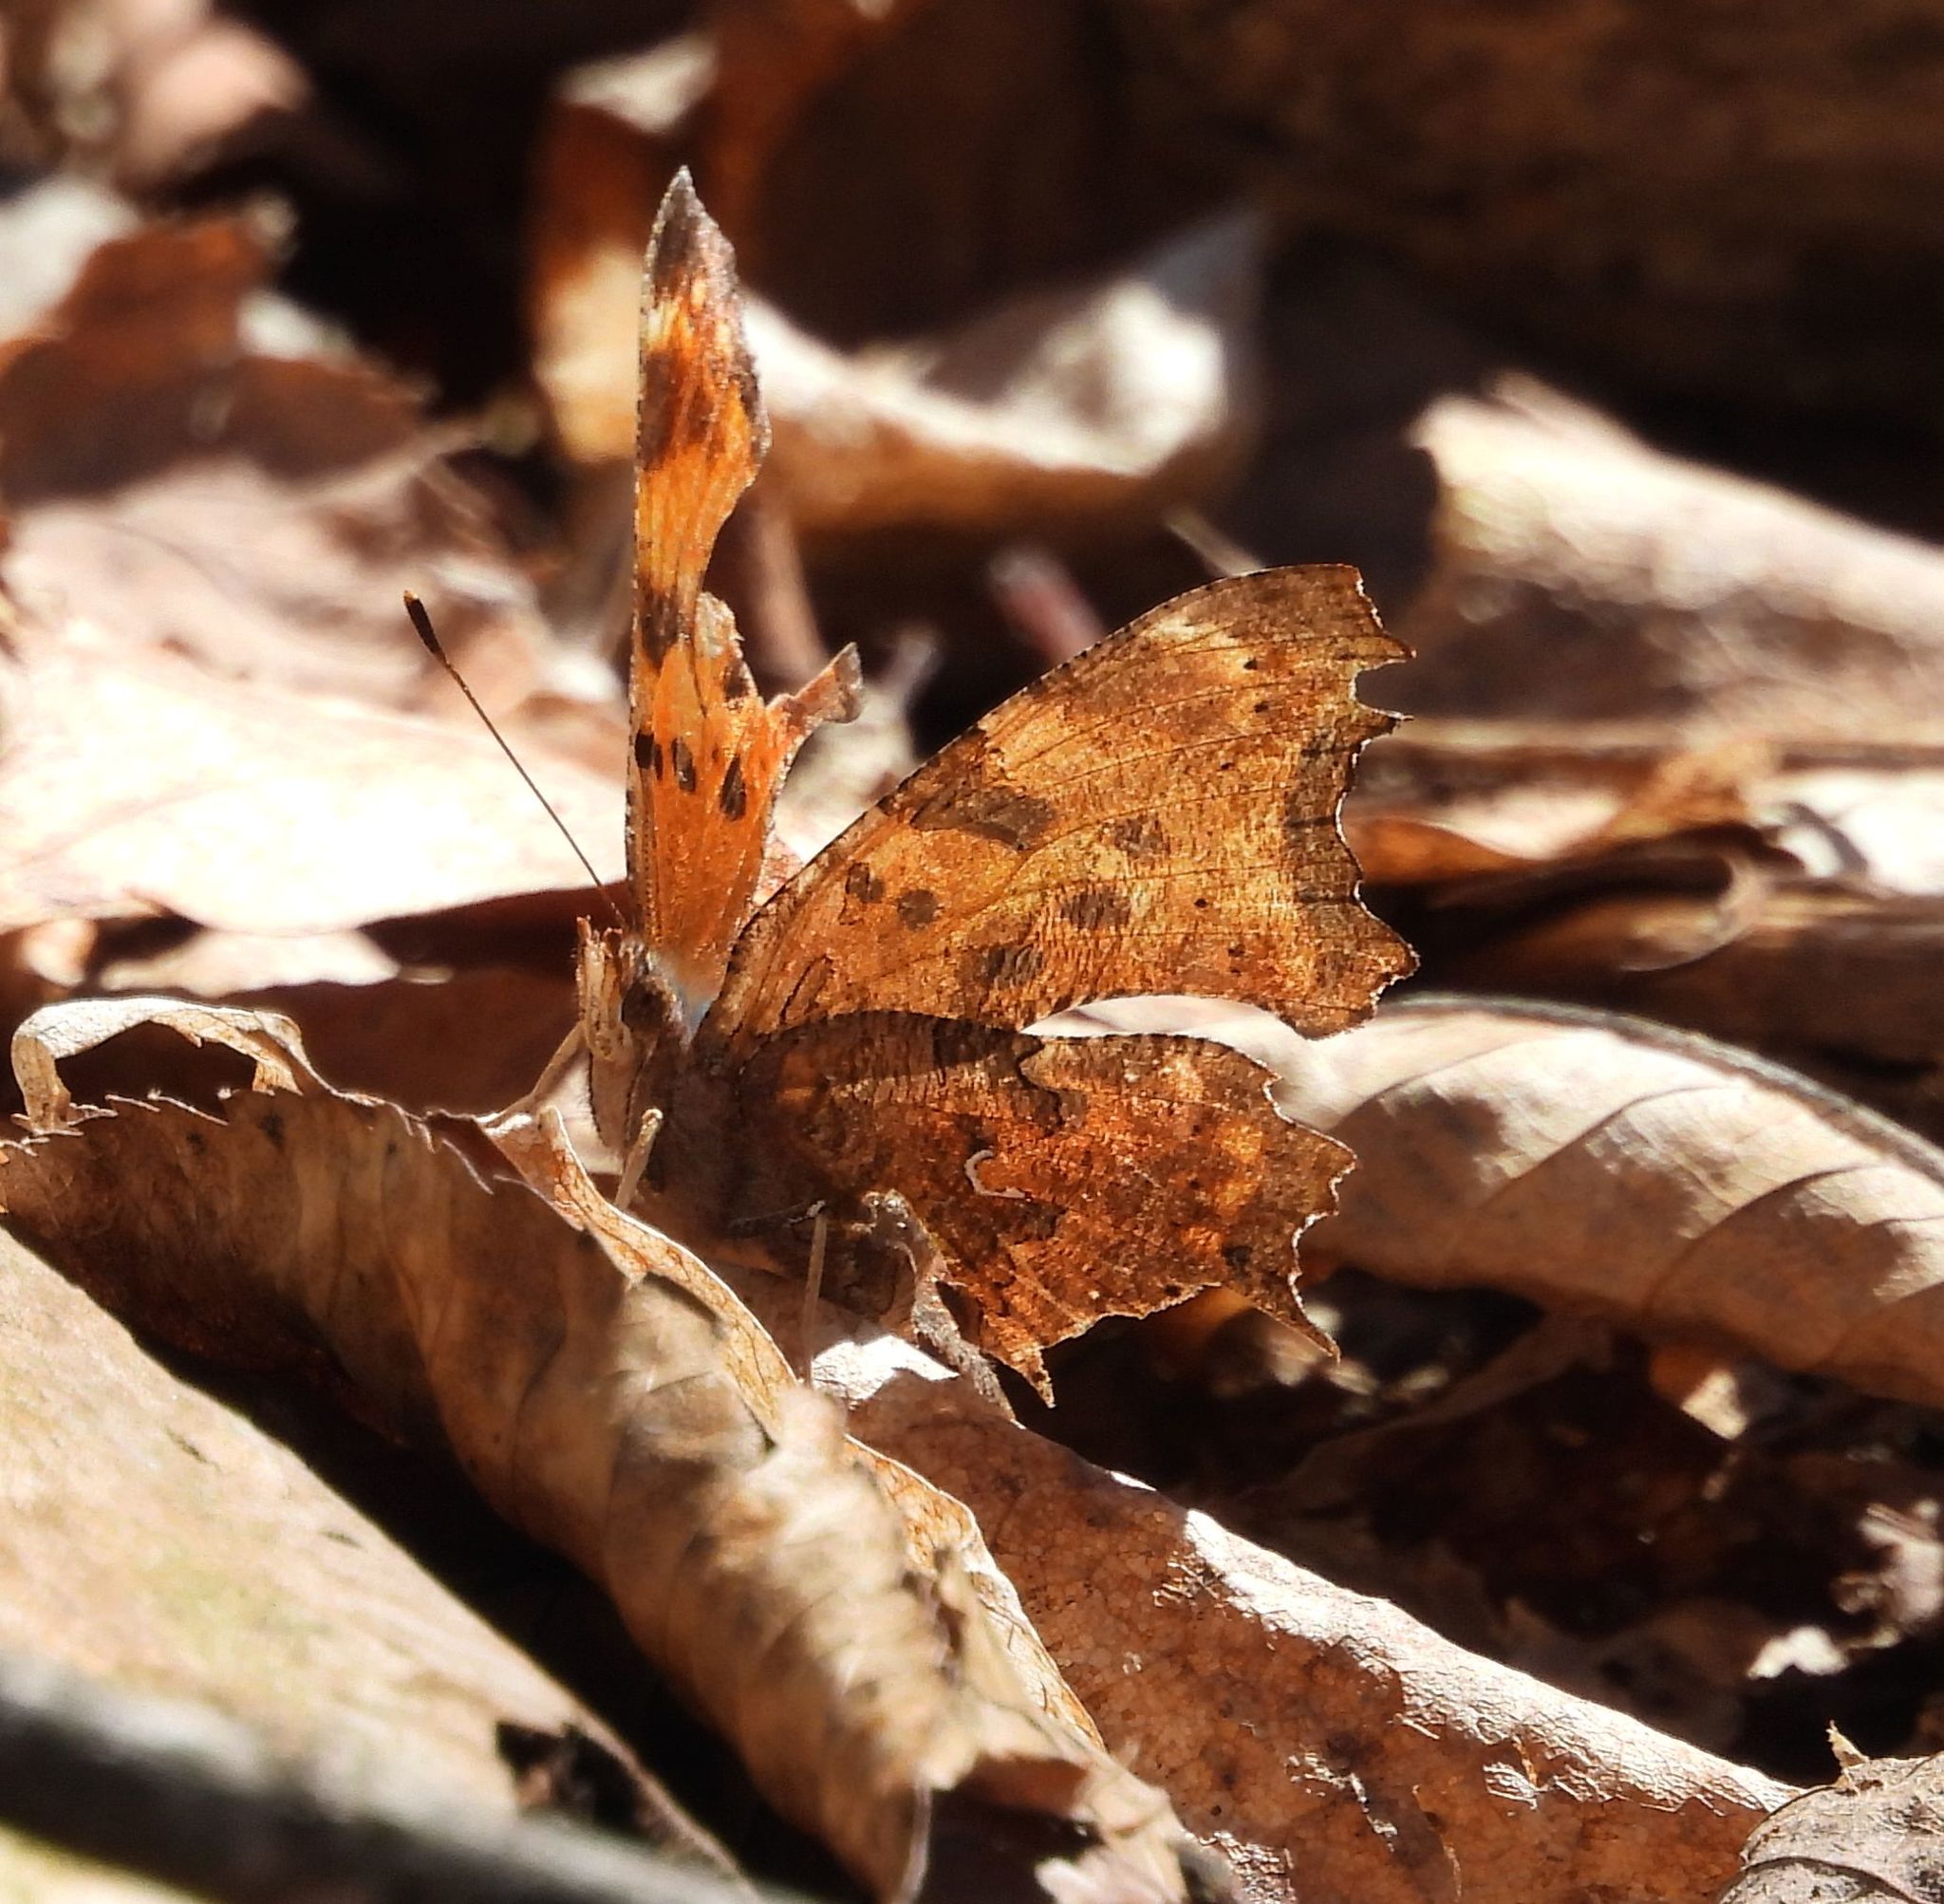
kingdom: Animalia
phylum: Arthropoda
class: Insecta
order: Lepidoptera
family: Nymphalidae
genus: Polygonia
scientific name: Polygonia comma
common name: Eastern comma
